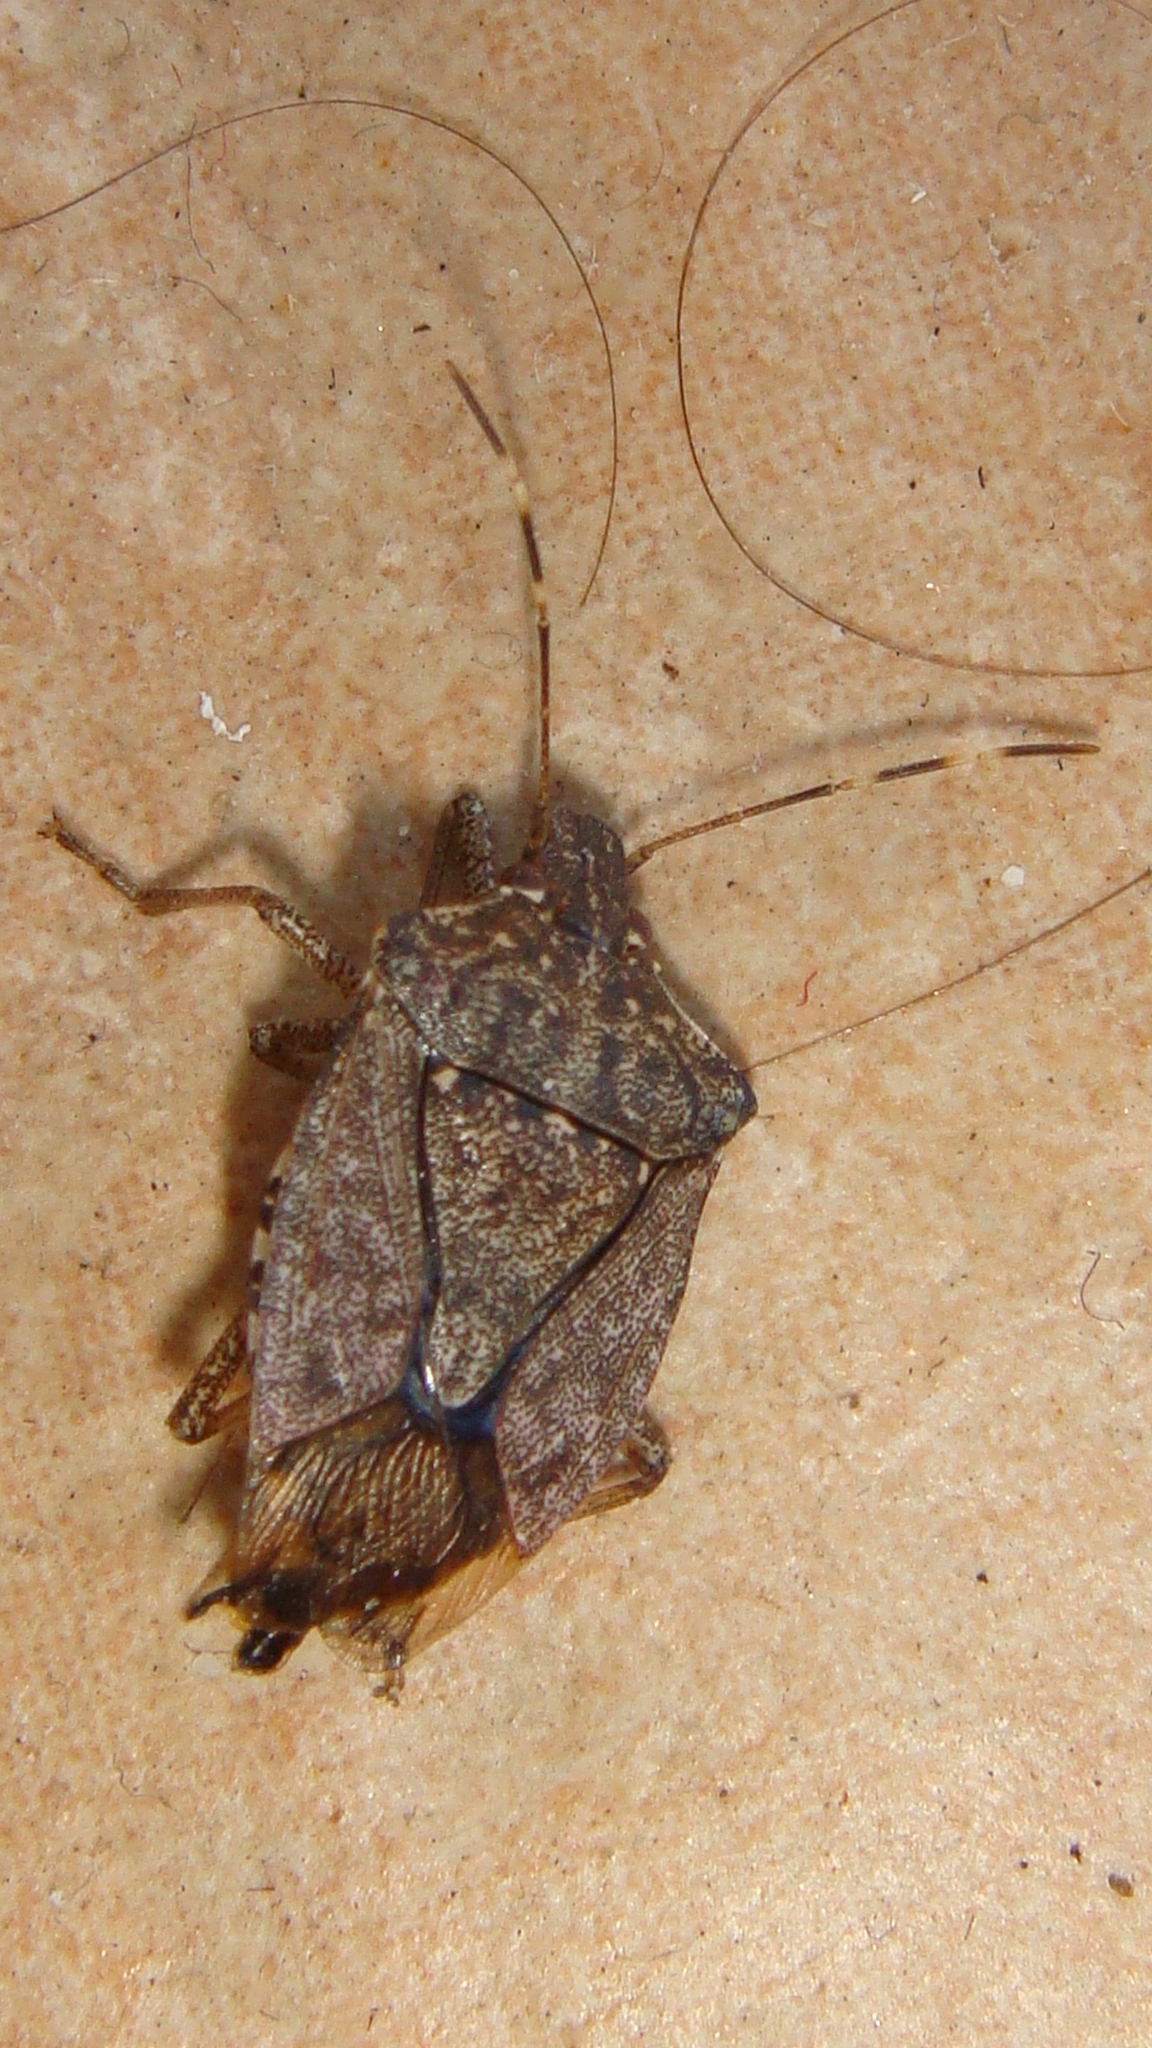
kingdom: Animalia
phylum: Arthropoda
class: Insecta
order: Hemiptera
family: Pentatomidae
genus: Halyomorpha
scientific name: Halyomorpha halys
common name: Brown marmorated stink bug
